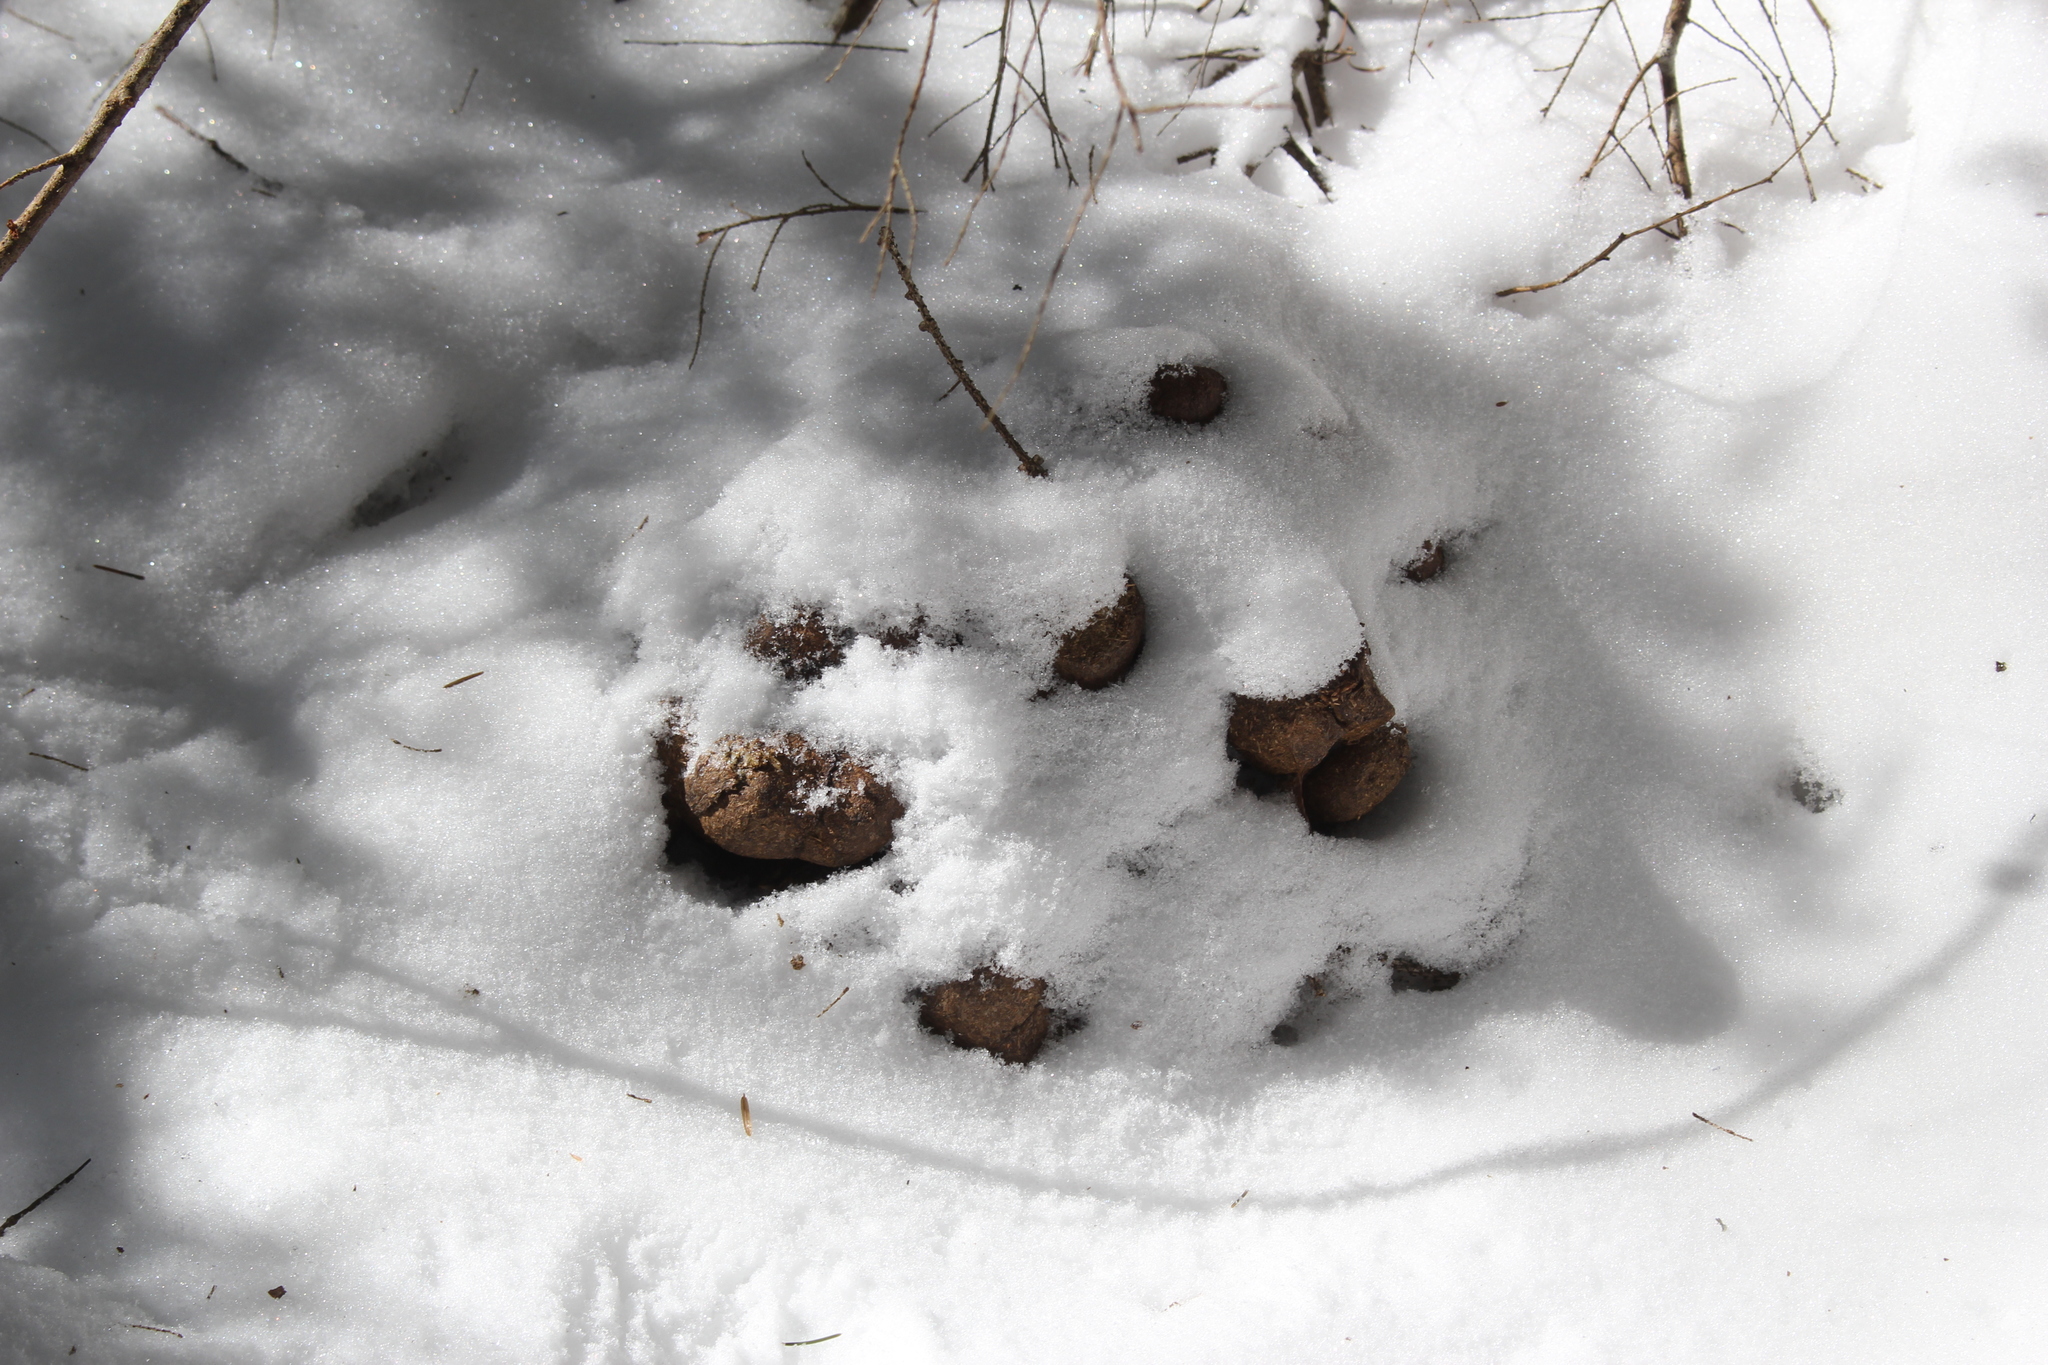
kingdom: Animalia
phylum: Chordata
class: Mammalia
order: Artiodactyla
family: Cervidae
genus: Alces
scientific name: Alces alces
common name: Moose
